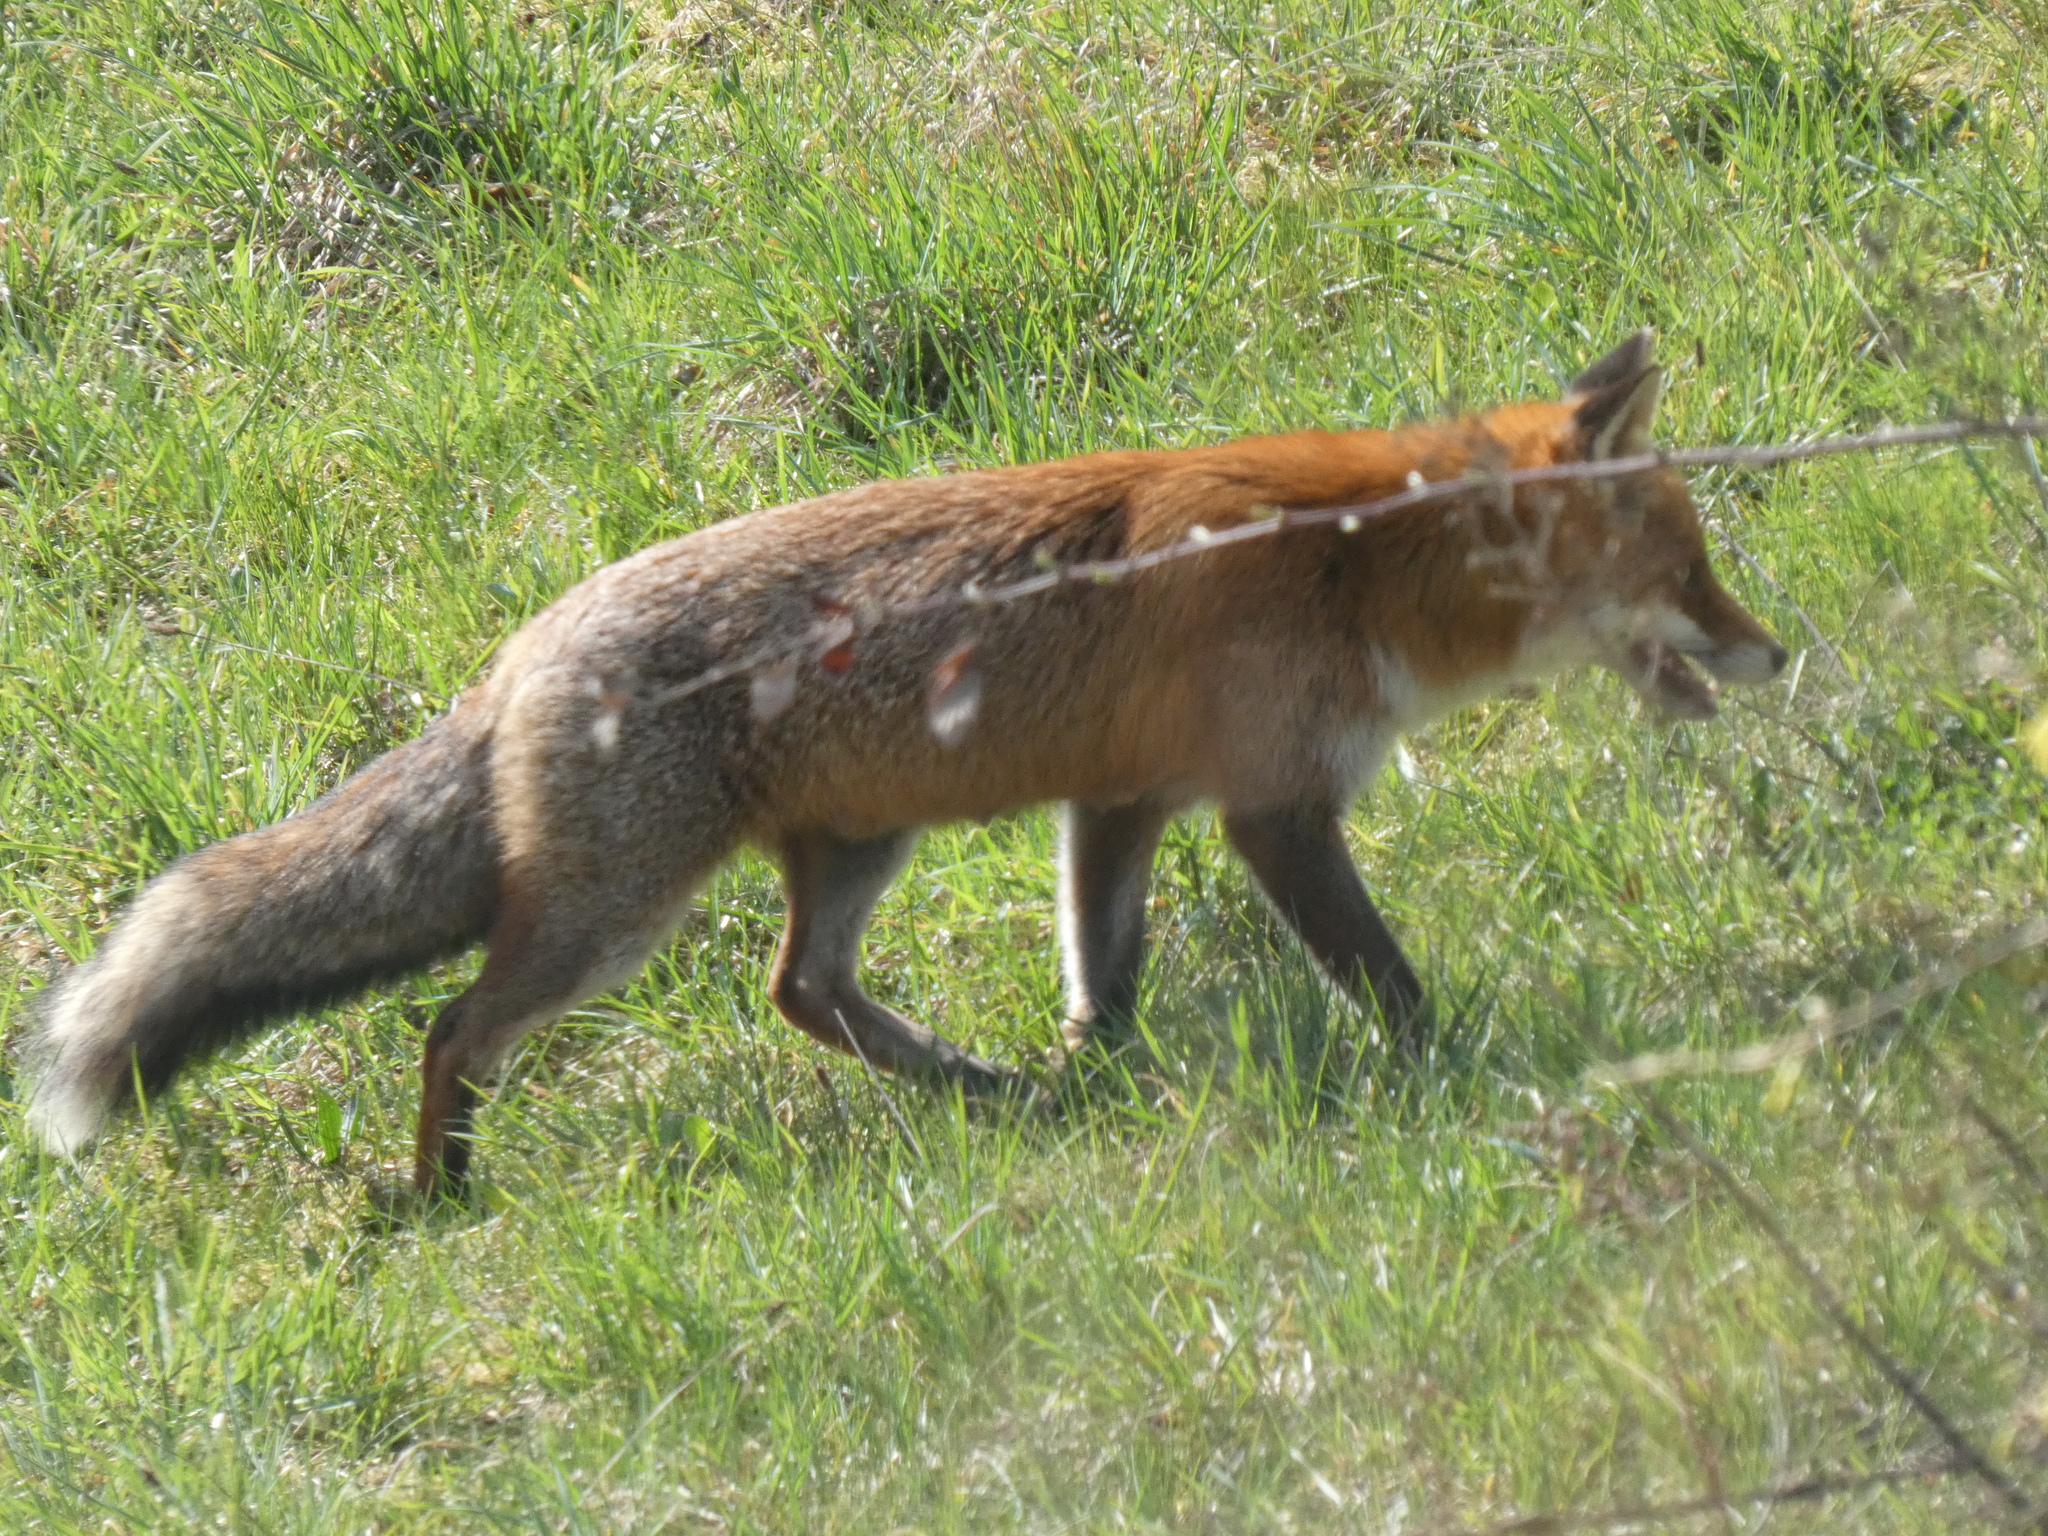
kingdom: Animalia
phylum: Chordata
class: Mammalia
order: Carnivora
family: Canidae
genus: Vulpes
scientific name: Vulpes vulpes
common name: Red fox
